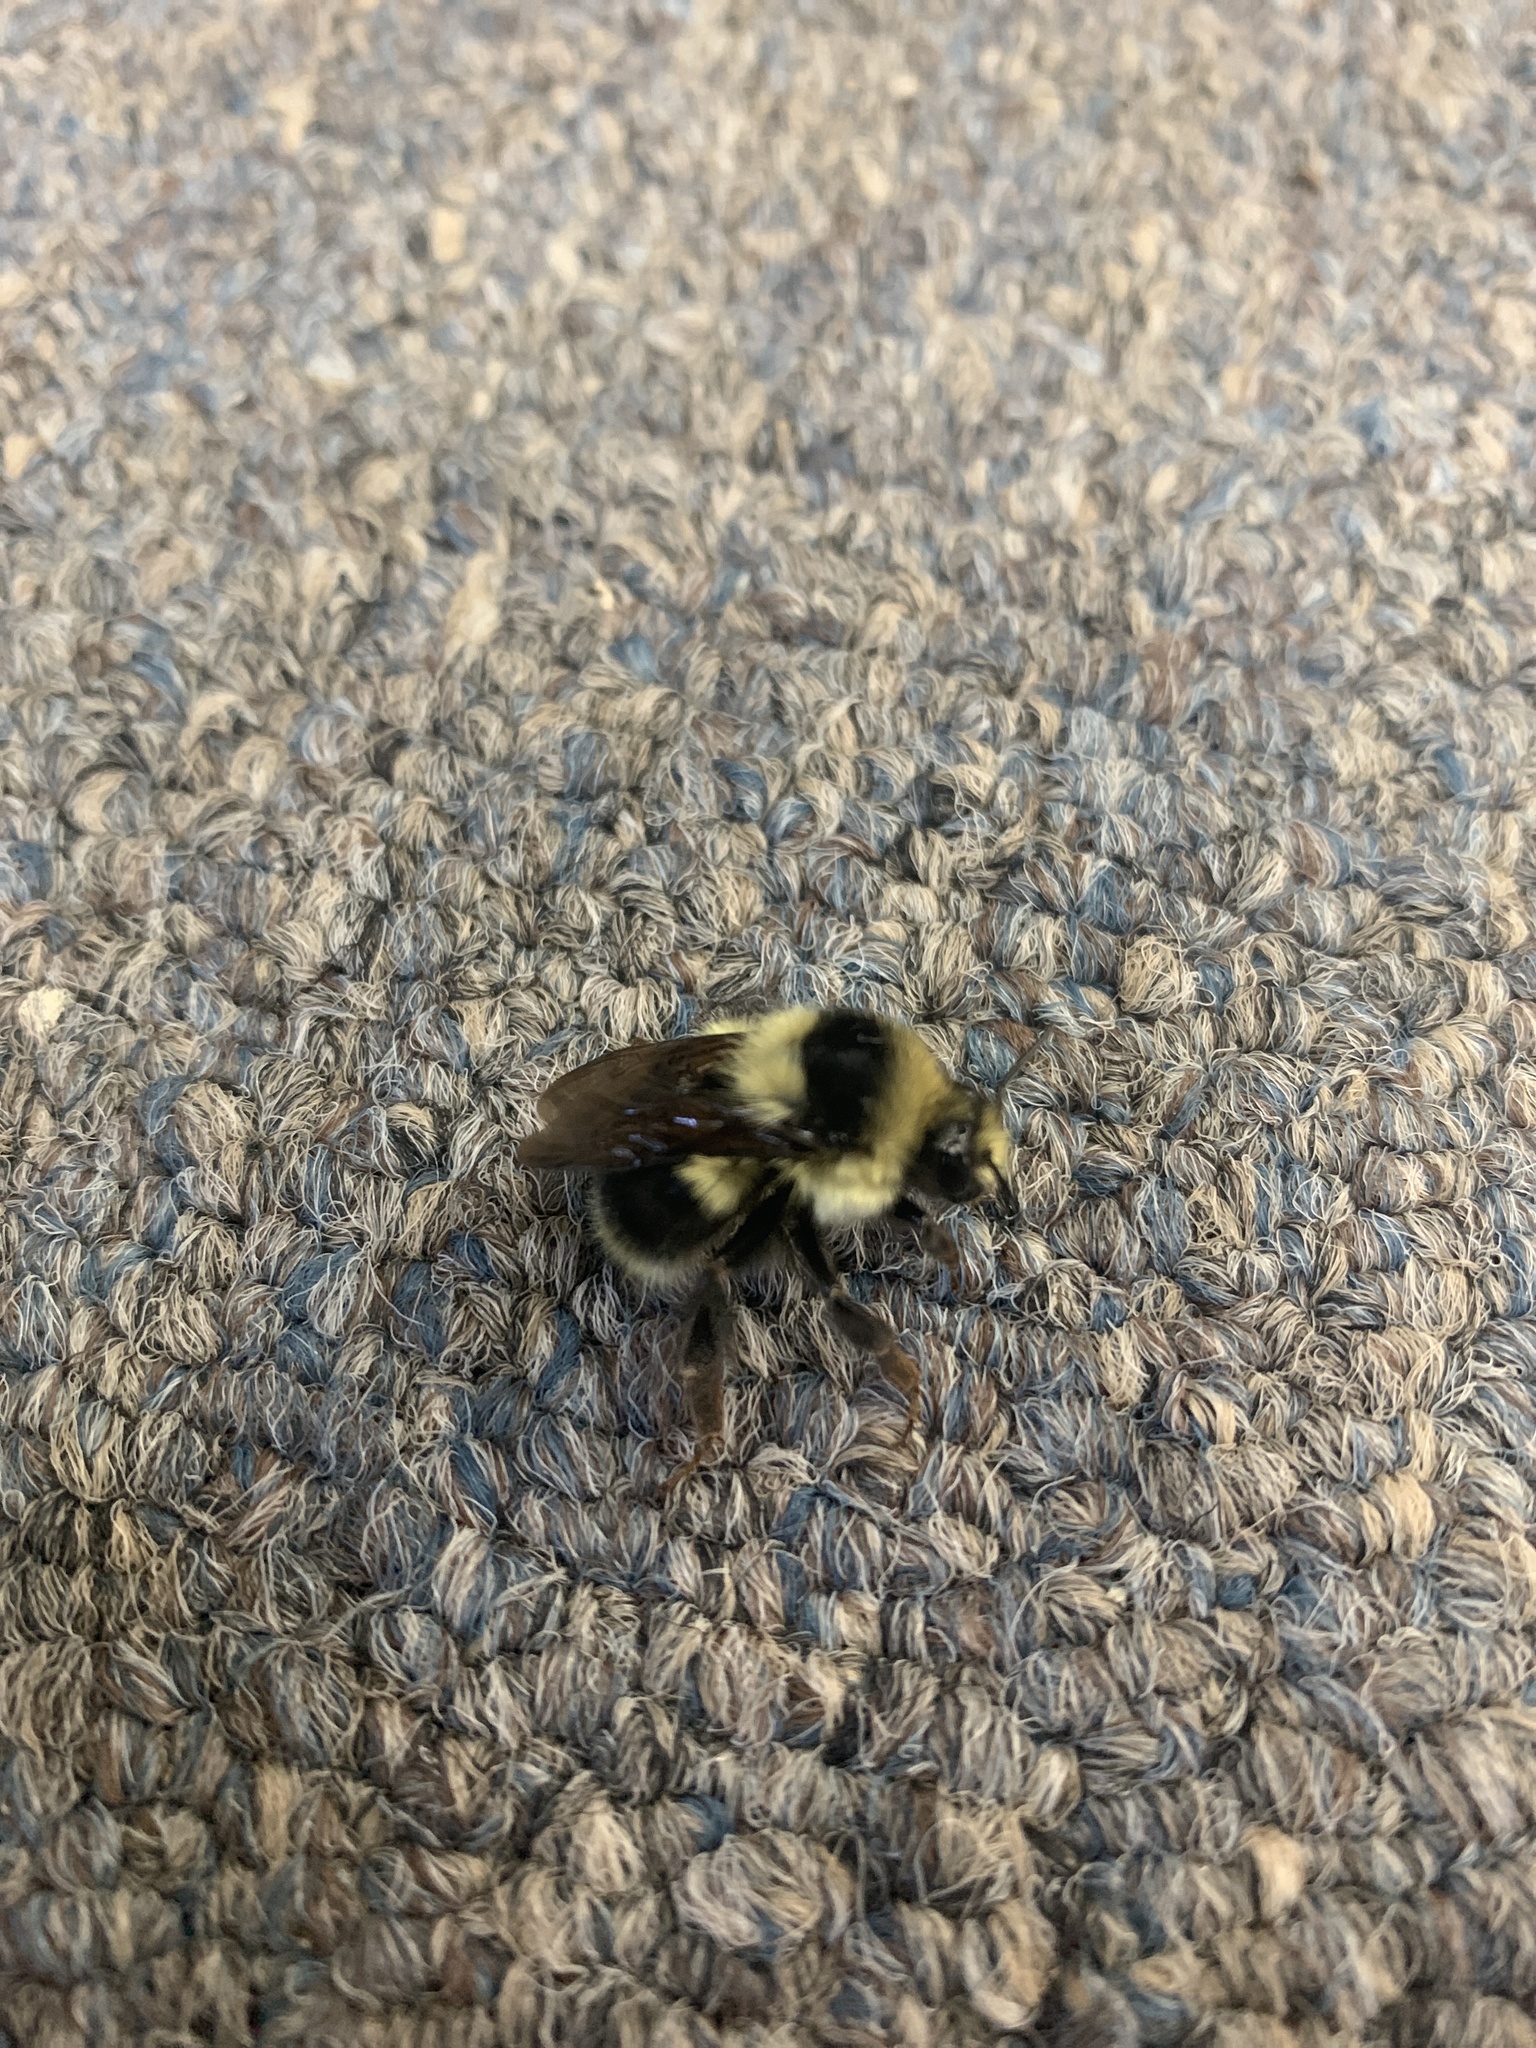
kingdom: Animalia
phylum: Arthropoda
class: Insecta
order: Hymenoptera
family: Apidae
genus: Bombus
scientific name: Bombus melanopygus
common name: Black tail bumble bee
